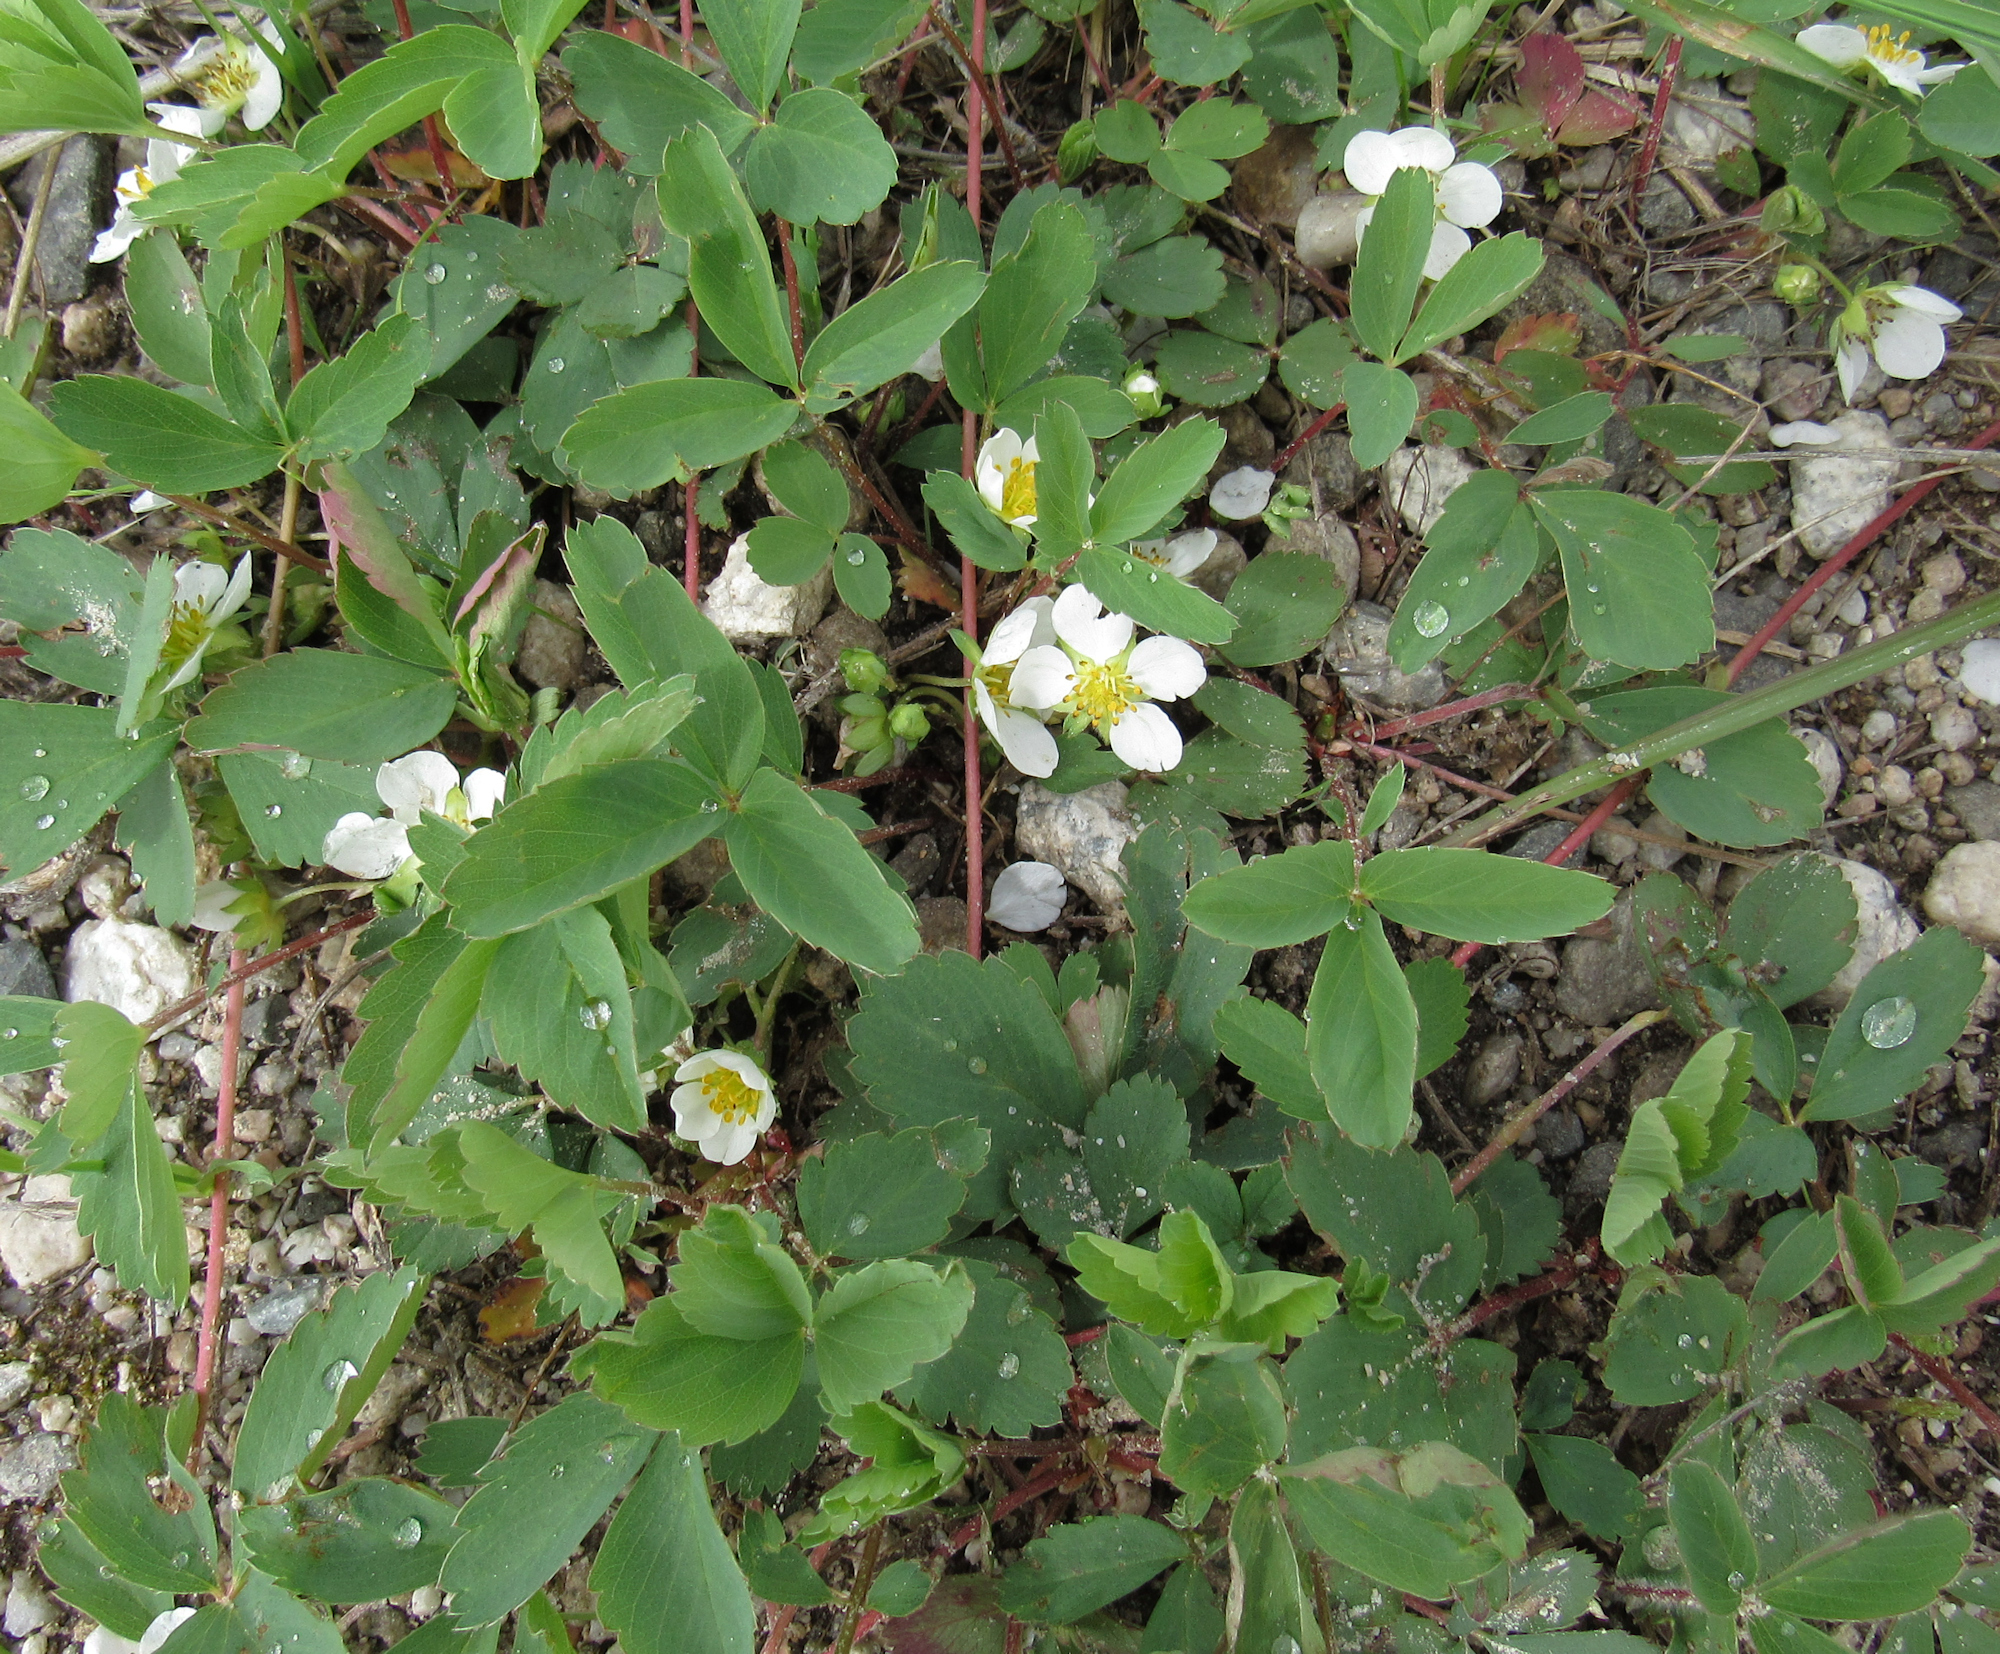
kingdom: Plantae
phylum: Tracheophyta
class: Magnoliopsida
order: Rosales
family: Rosaceae
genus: Fragaria
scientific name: Fragaria virginiana
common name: Thickleaved wild strawberry
